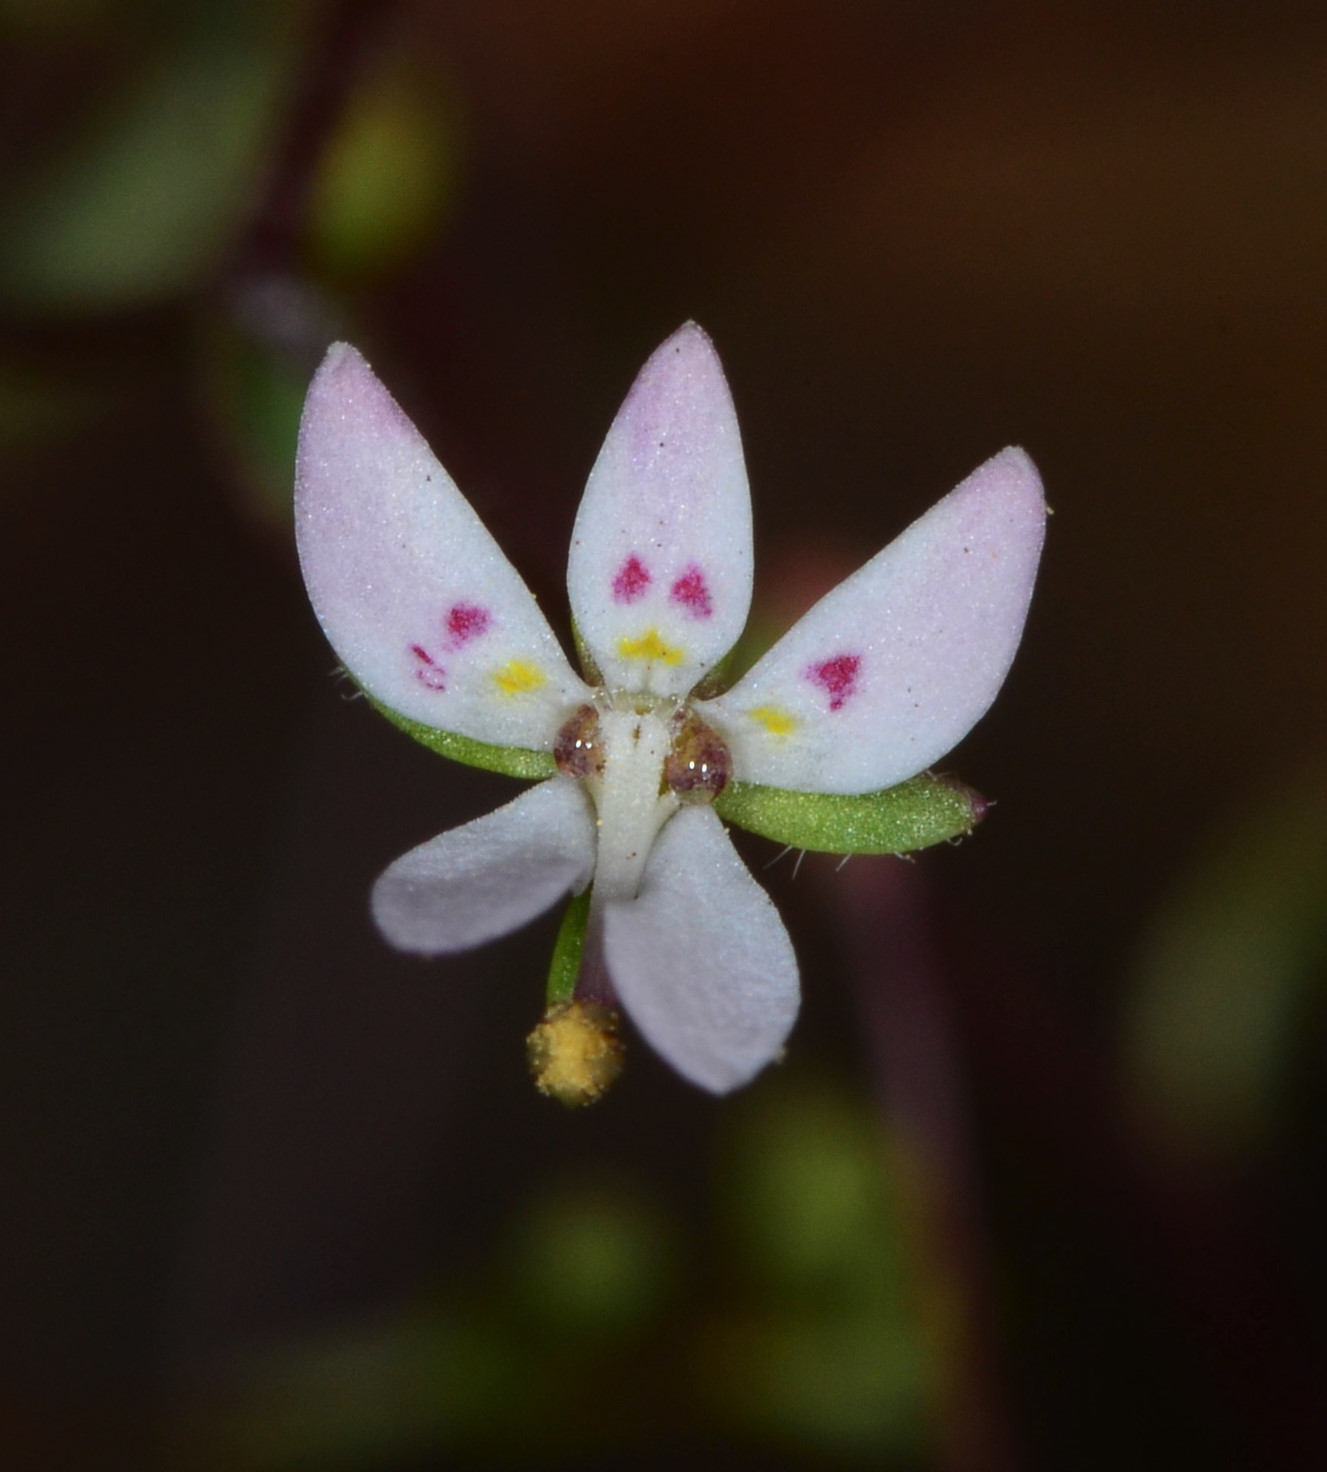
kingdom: Plantae
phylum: Tracheophyta
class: Magnoliopsida
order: Asterales
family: Campanulaceae
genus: Nemacladus
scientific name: Nemacladus montanus
